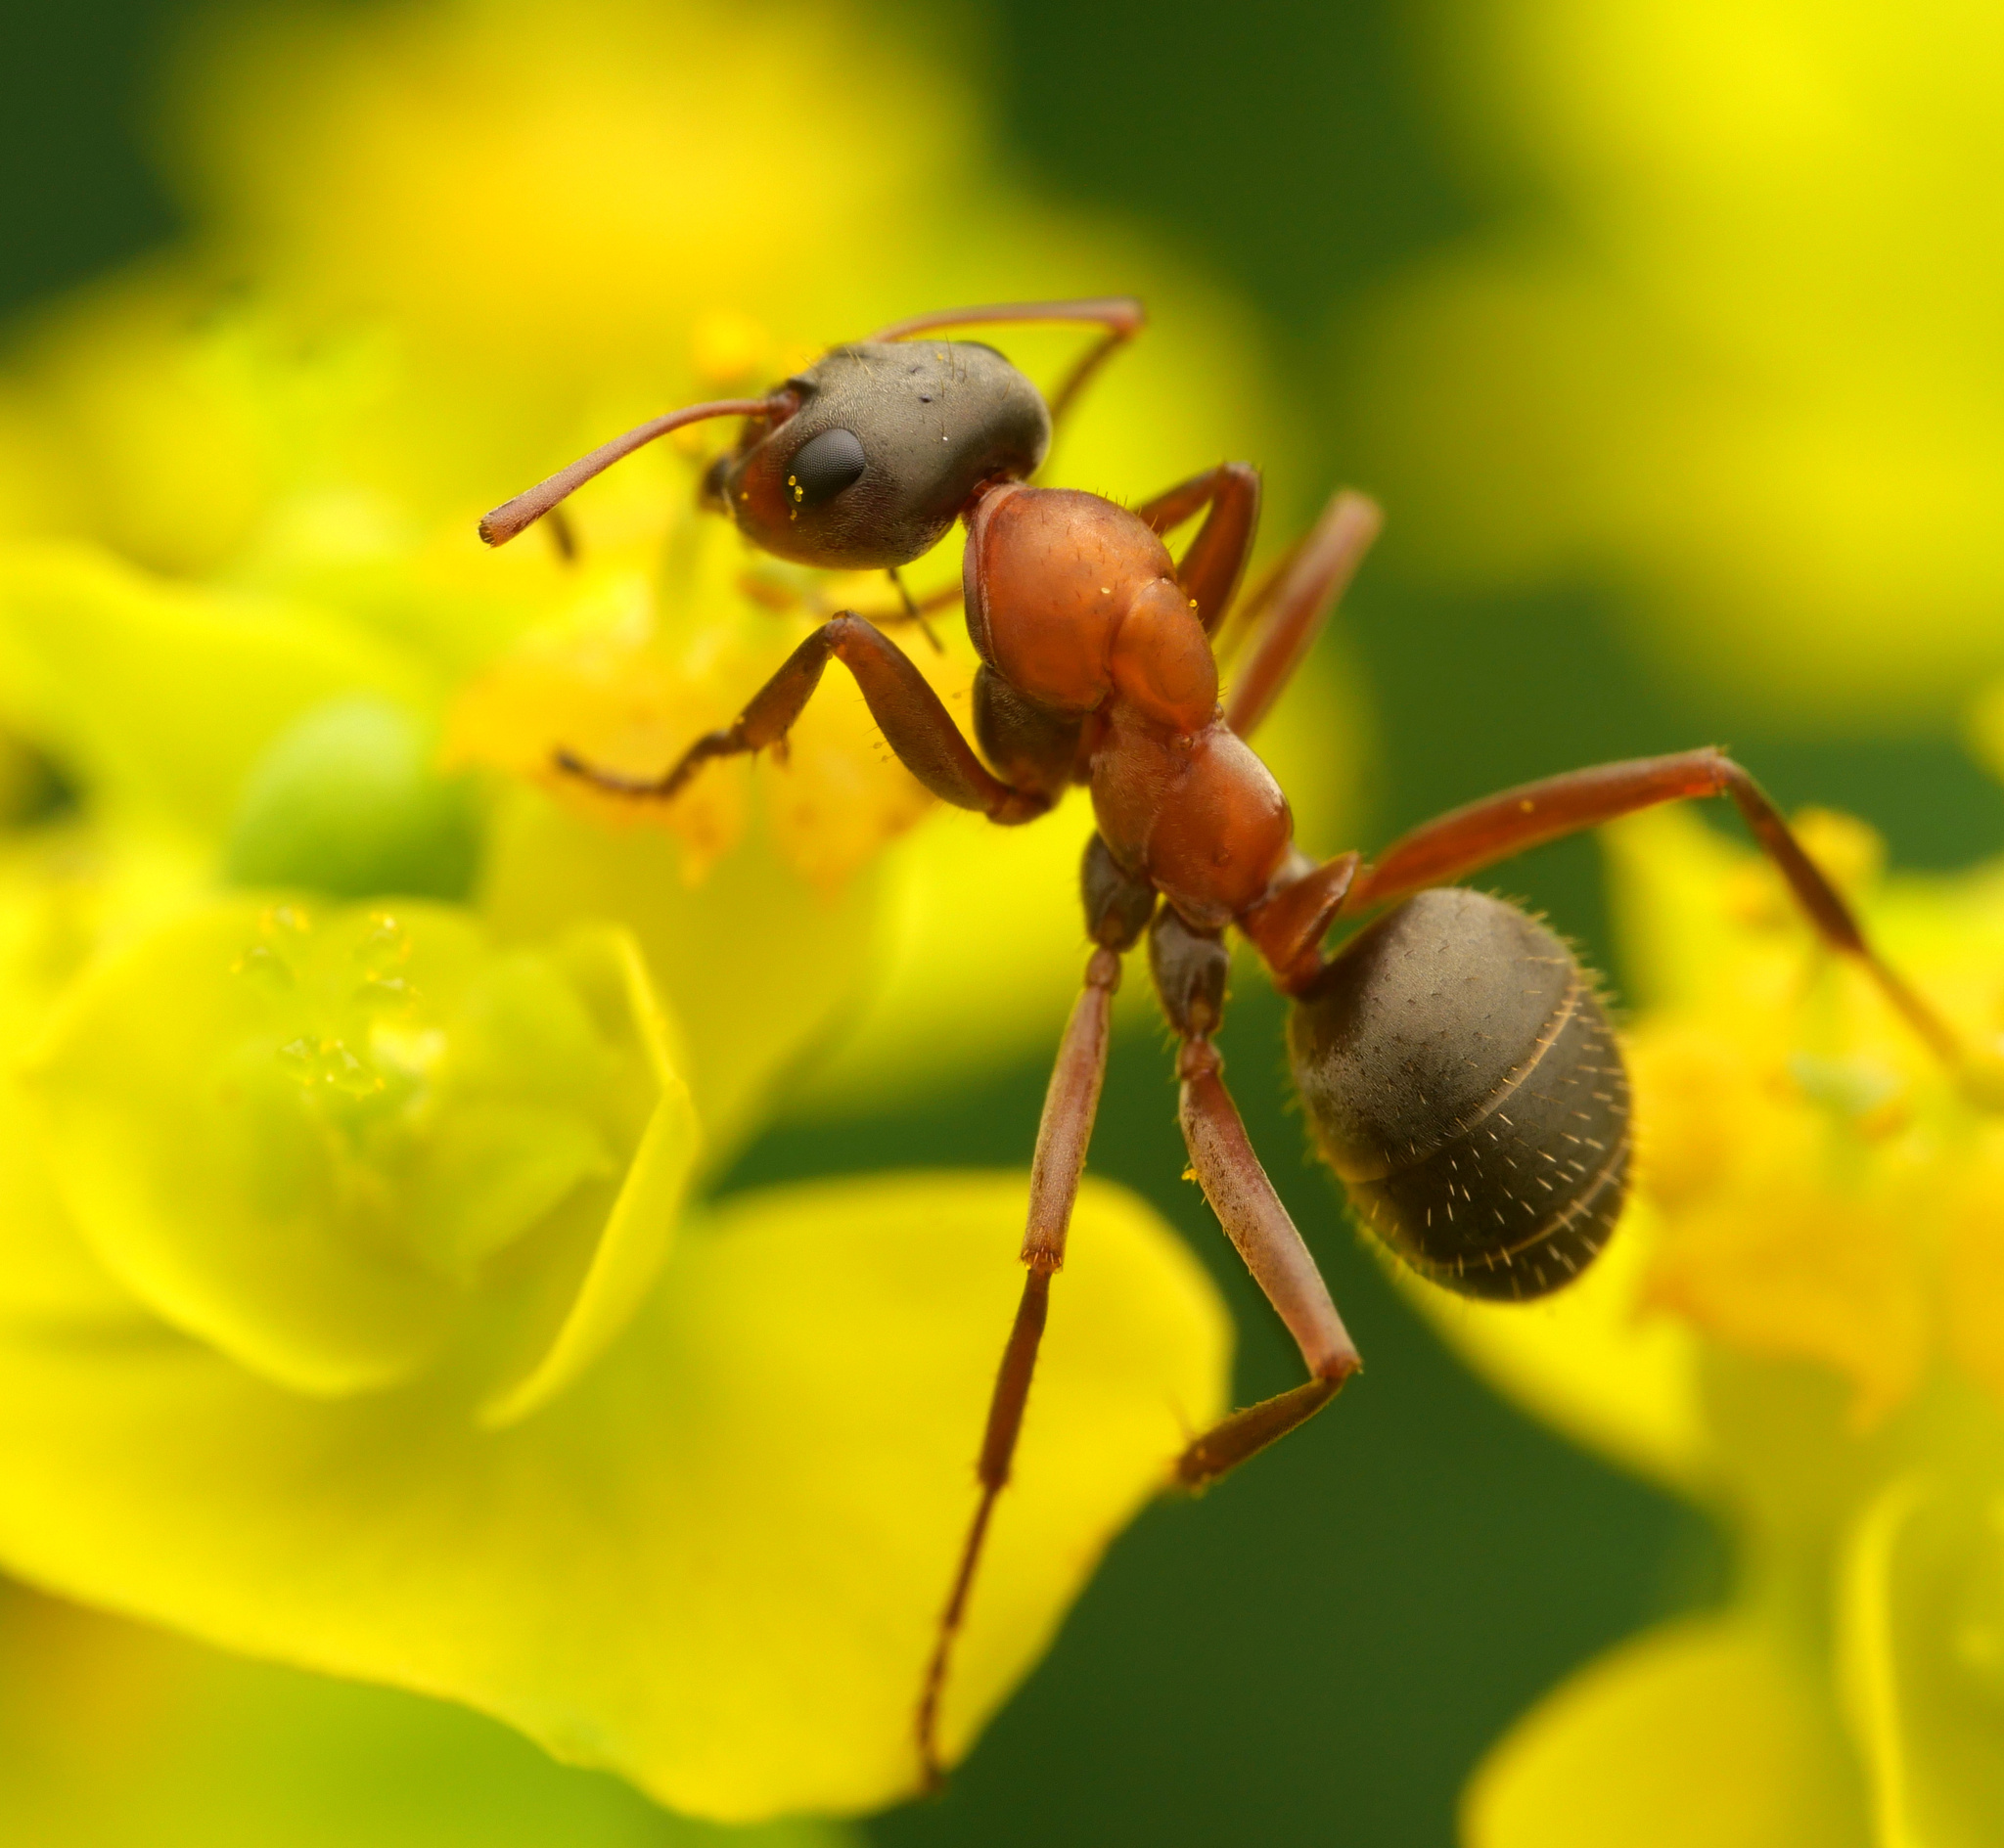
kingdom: Animalia
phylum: Arthropoda
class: Insecta
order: Hymenoptera
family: Formicidae
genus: Formica
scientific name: Formica rufibarbis
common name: Red barbed ant
